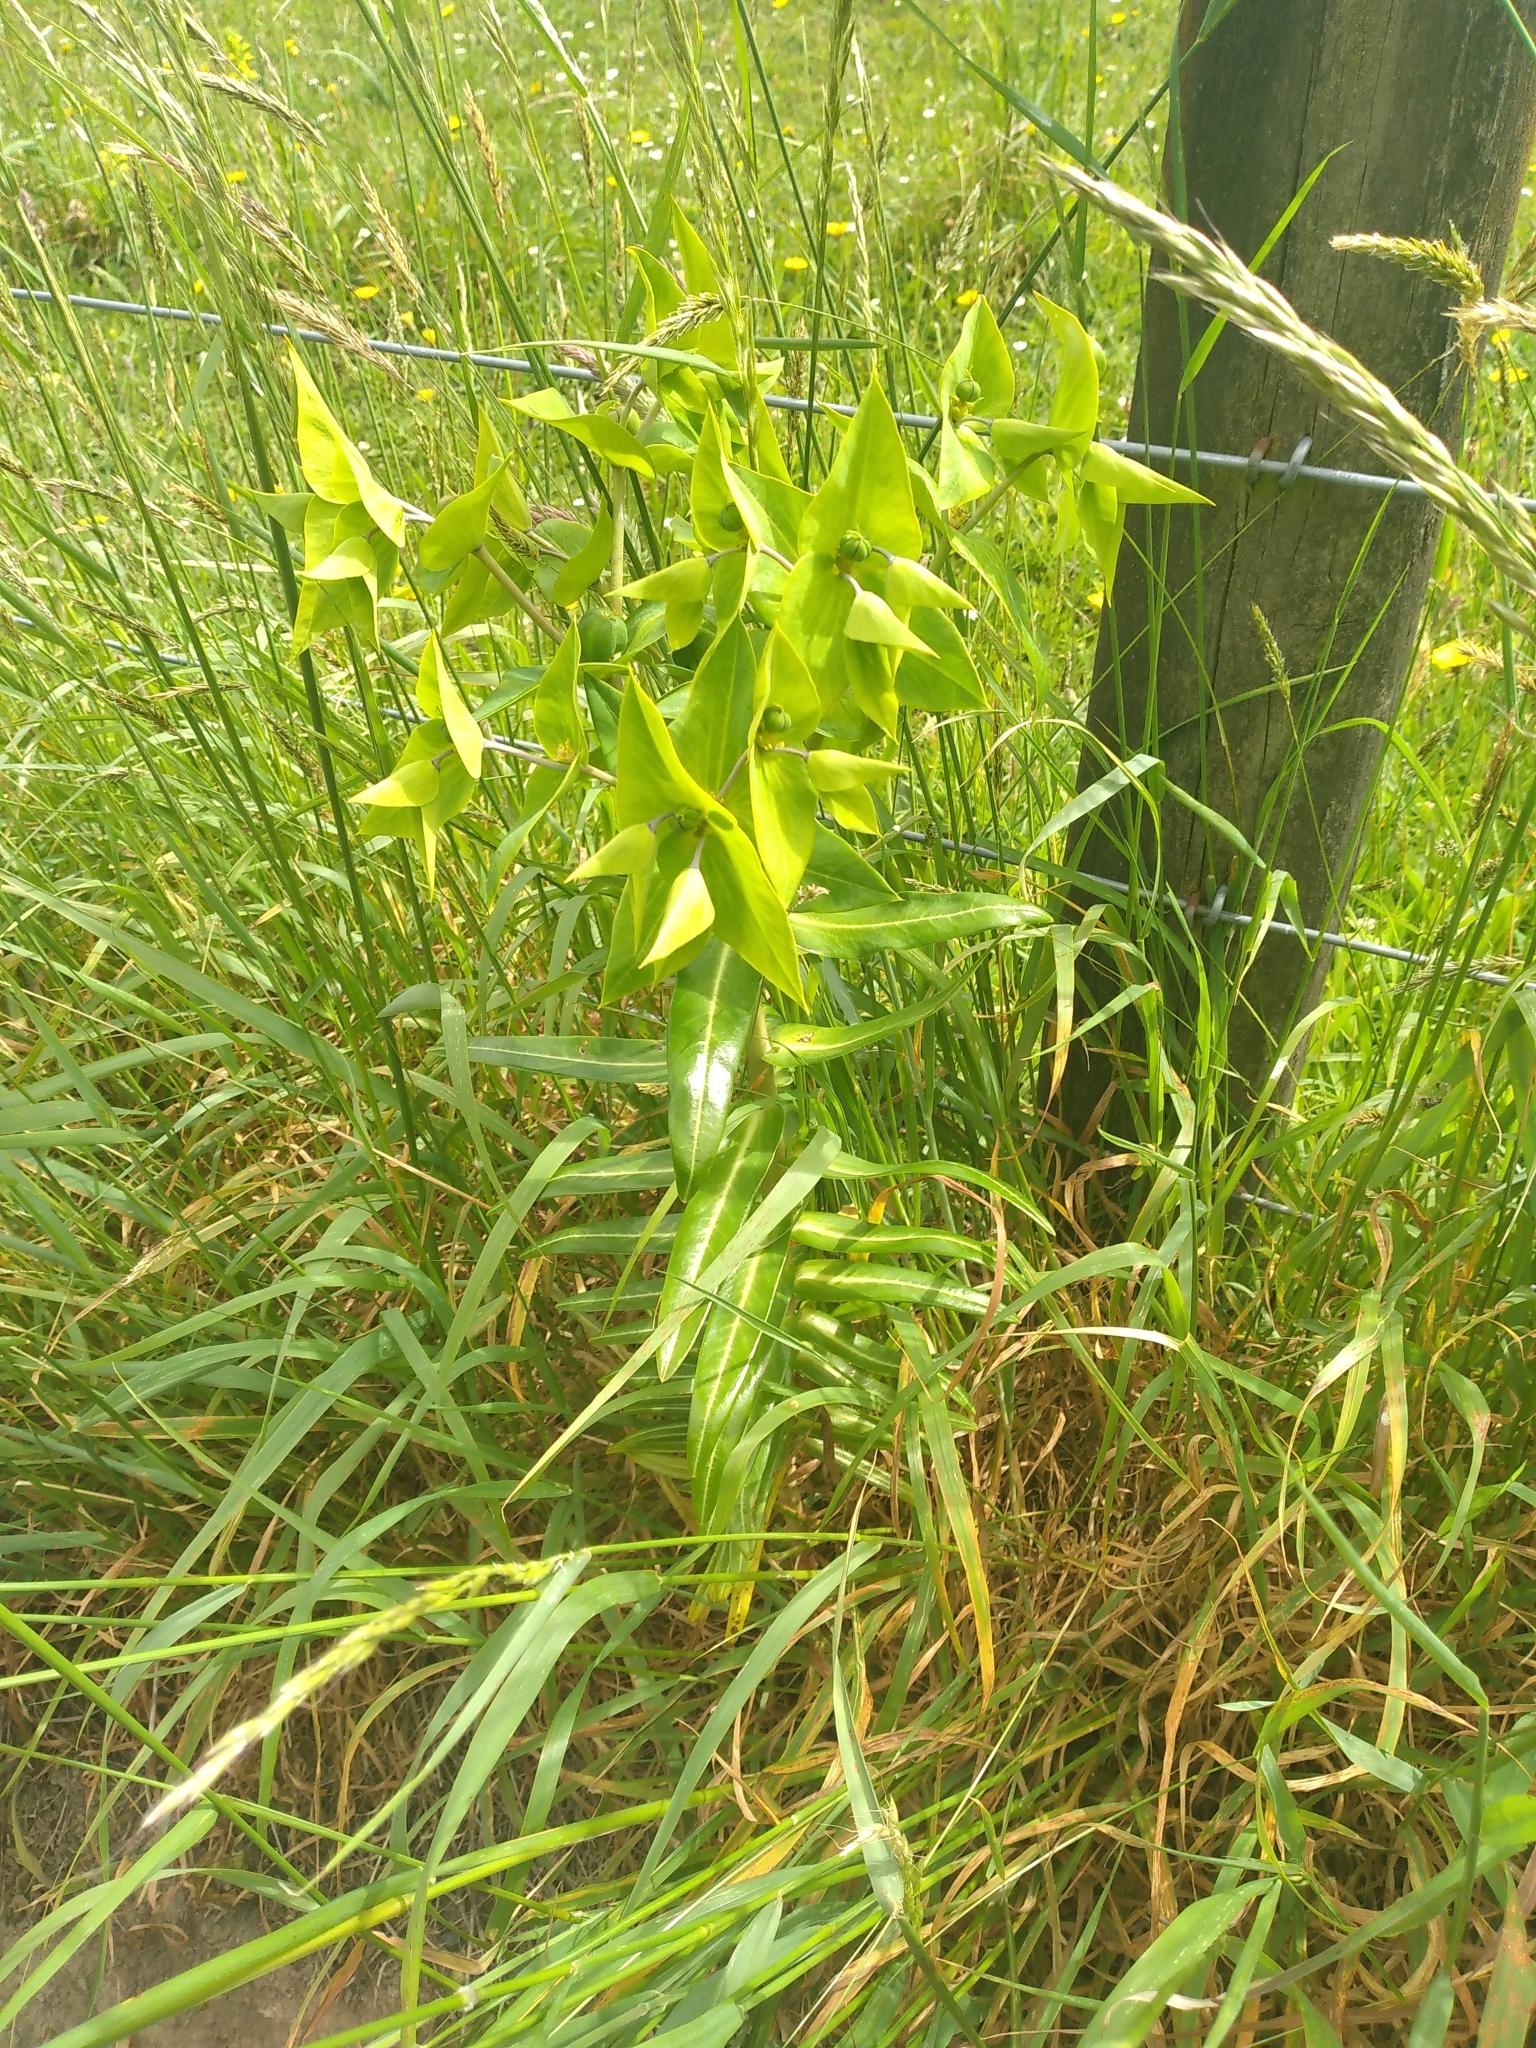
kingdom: Plantae
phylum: Tracheophyta
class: Magnoliopsida
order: Malpighiales
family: Euphorbiaceae
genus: Euphorbia
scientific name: Euphorbia lathyris
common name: Caper spurge
